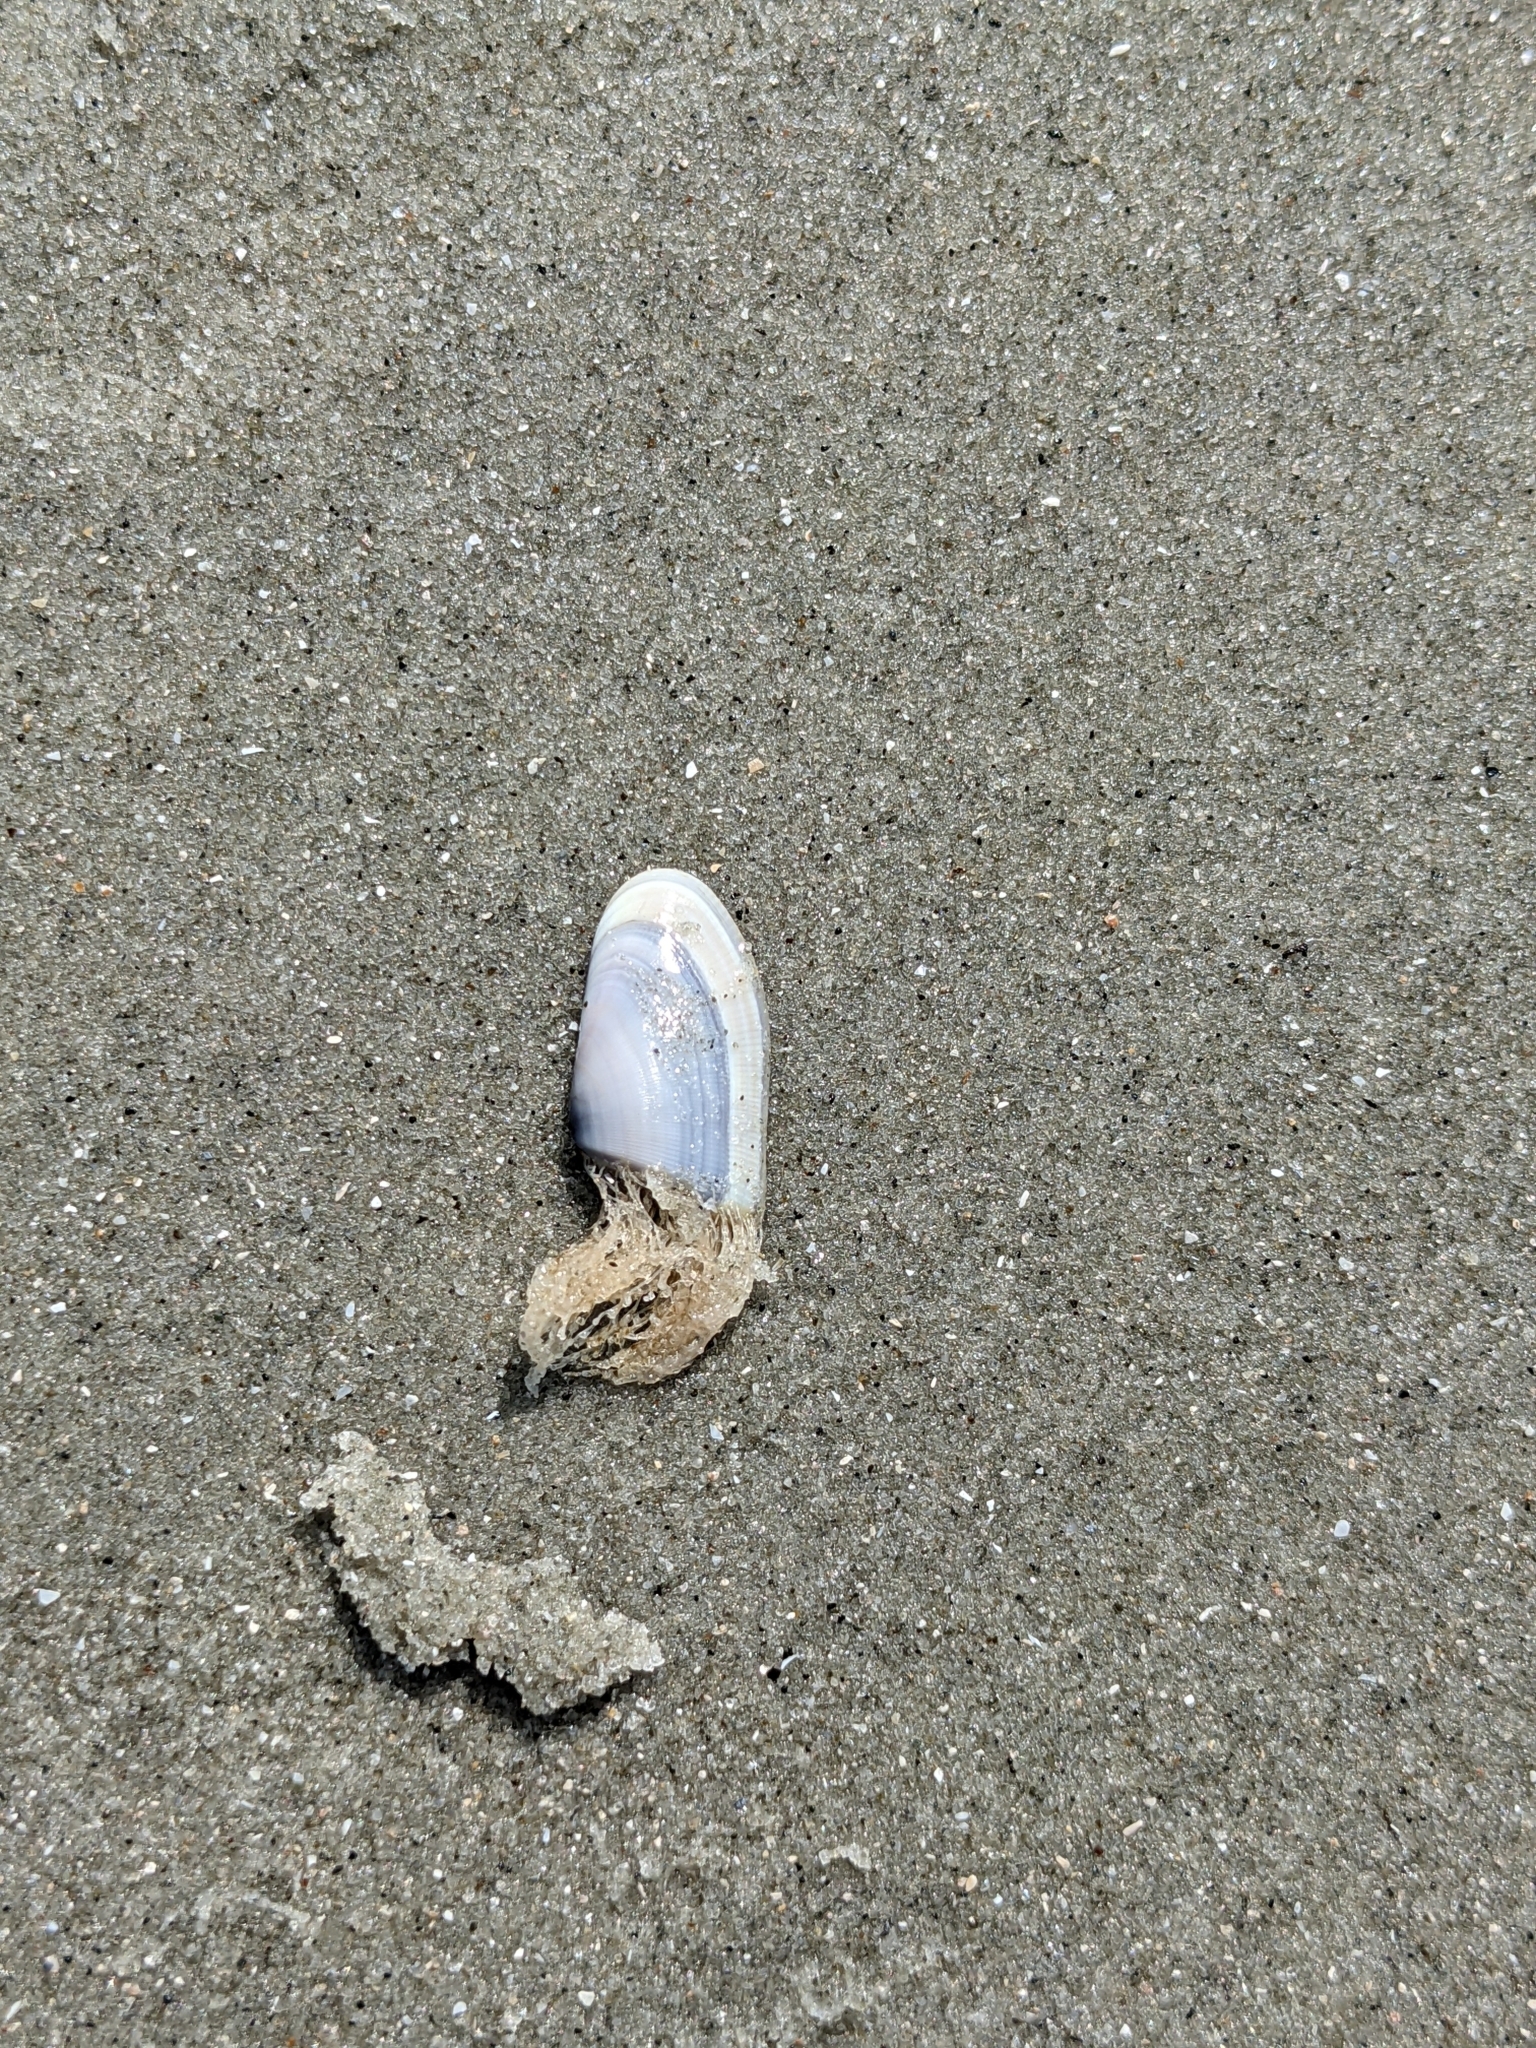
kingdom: Animalia
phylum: Cnidaria
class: Hydrozoa
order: Leptothecata
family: Lovenellidae
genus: Lovenella
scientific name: Lovenella gracilis
